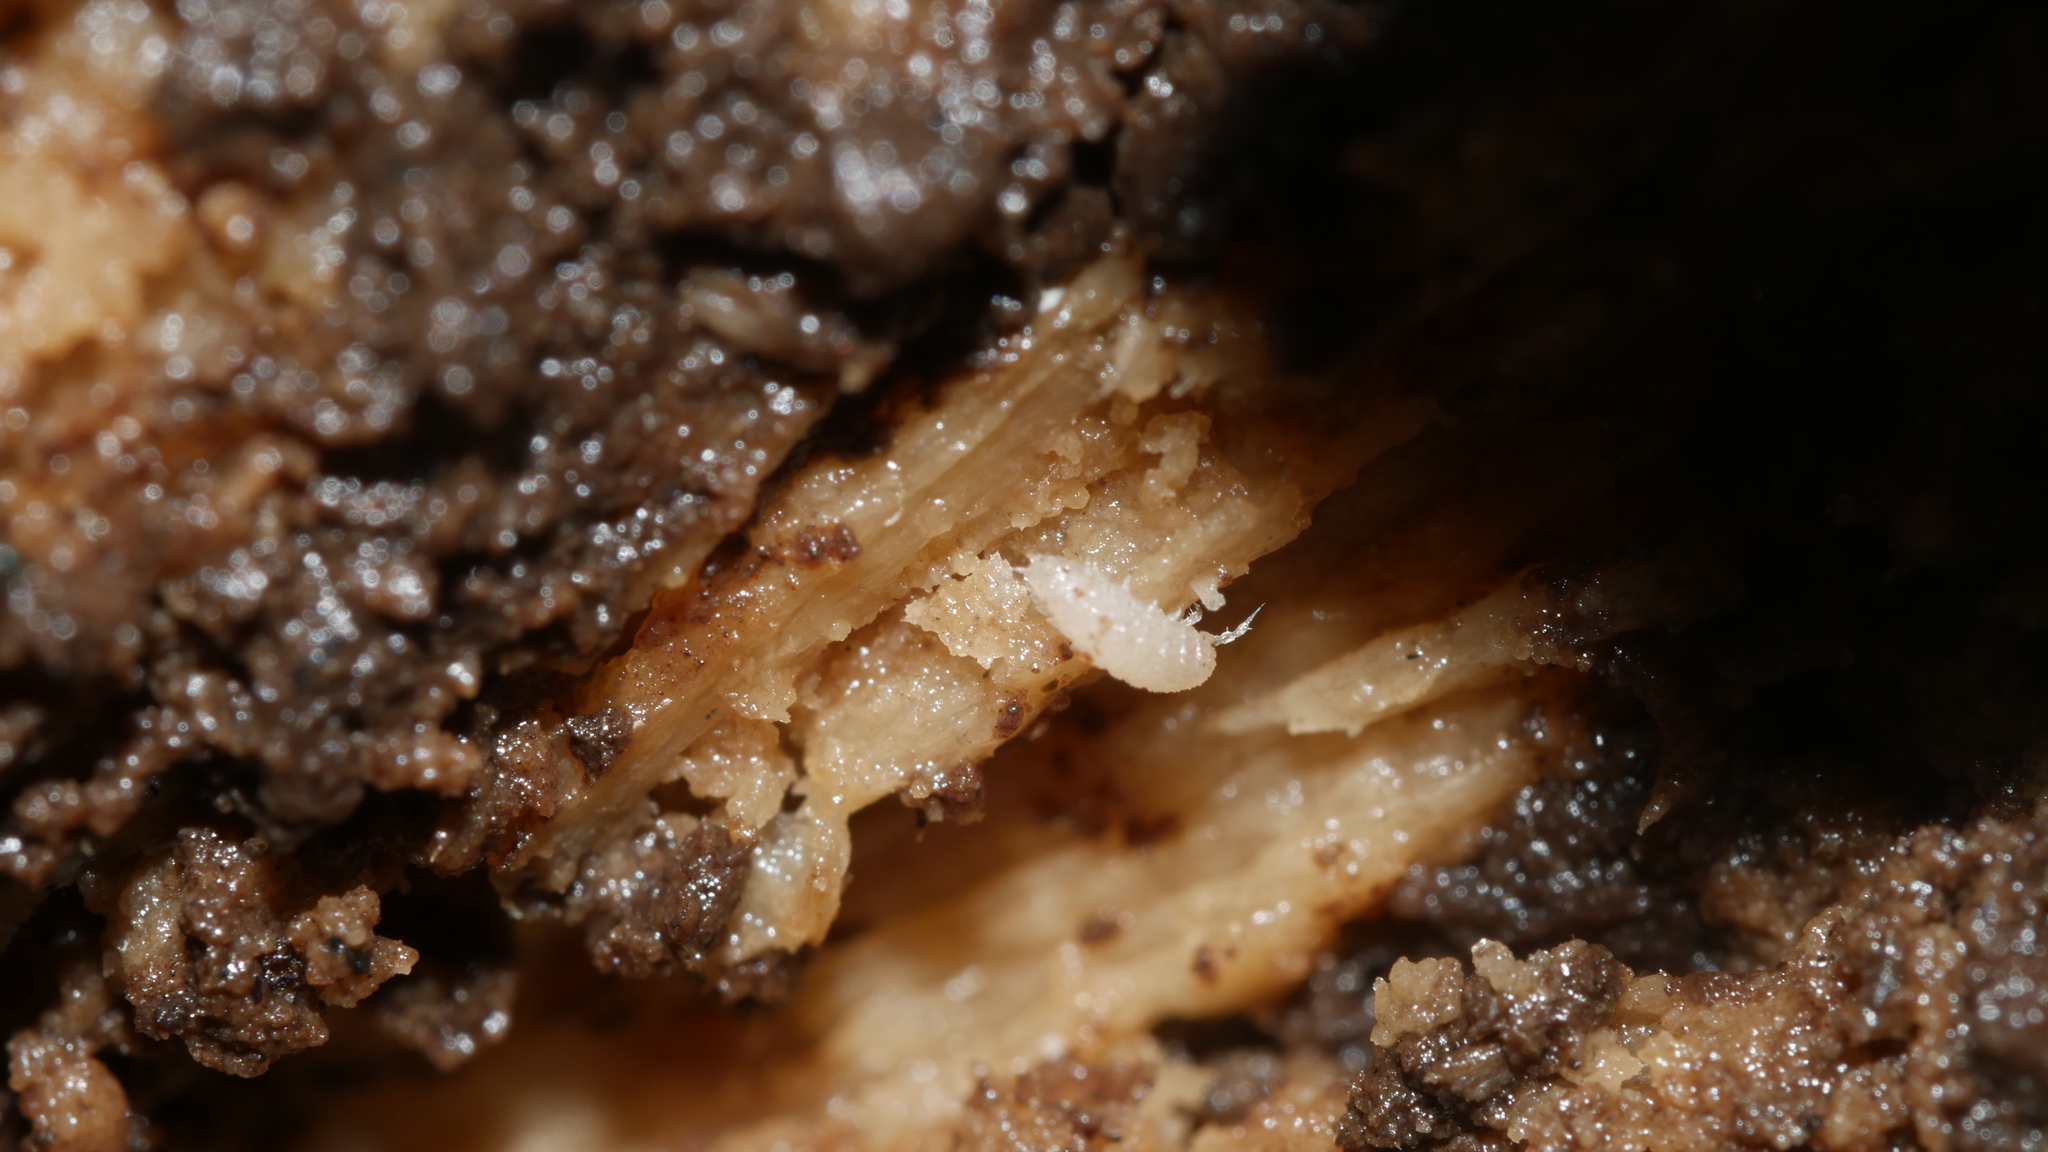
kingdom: Animalia
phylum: Arthropoda
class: Malacostraca
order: Isopoda
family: Trichoniscidae
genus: Haplophthalmus
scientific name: Haplophthalmus danicus
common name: Pillbug
